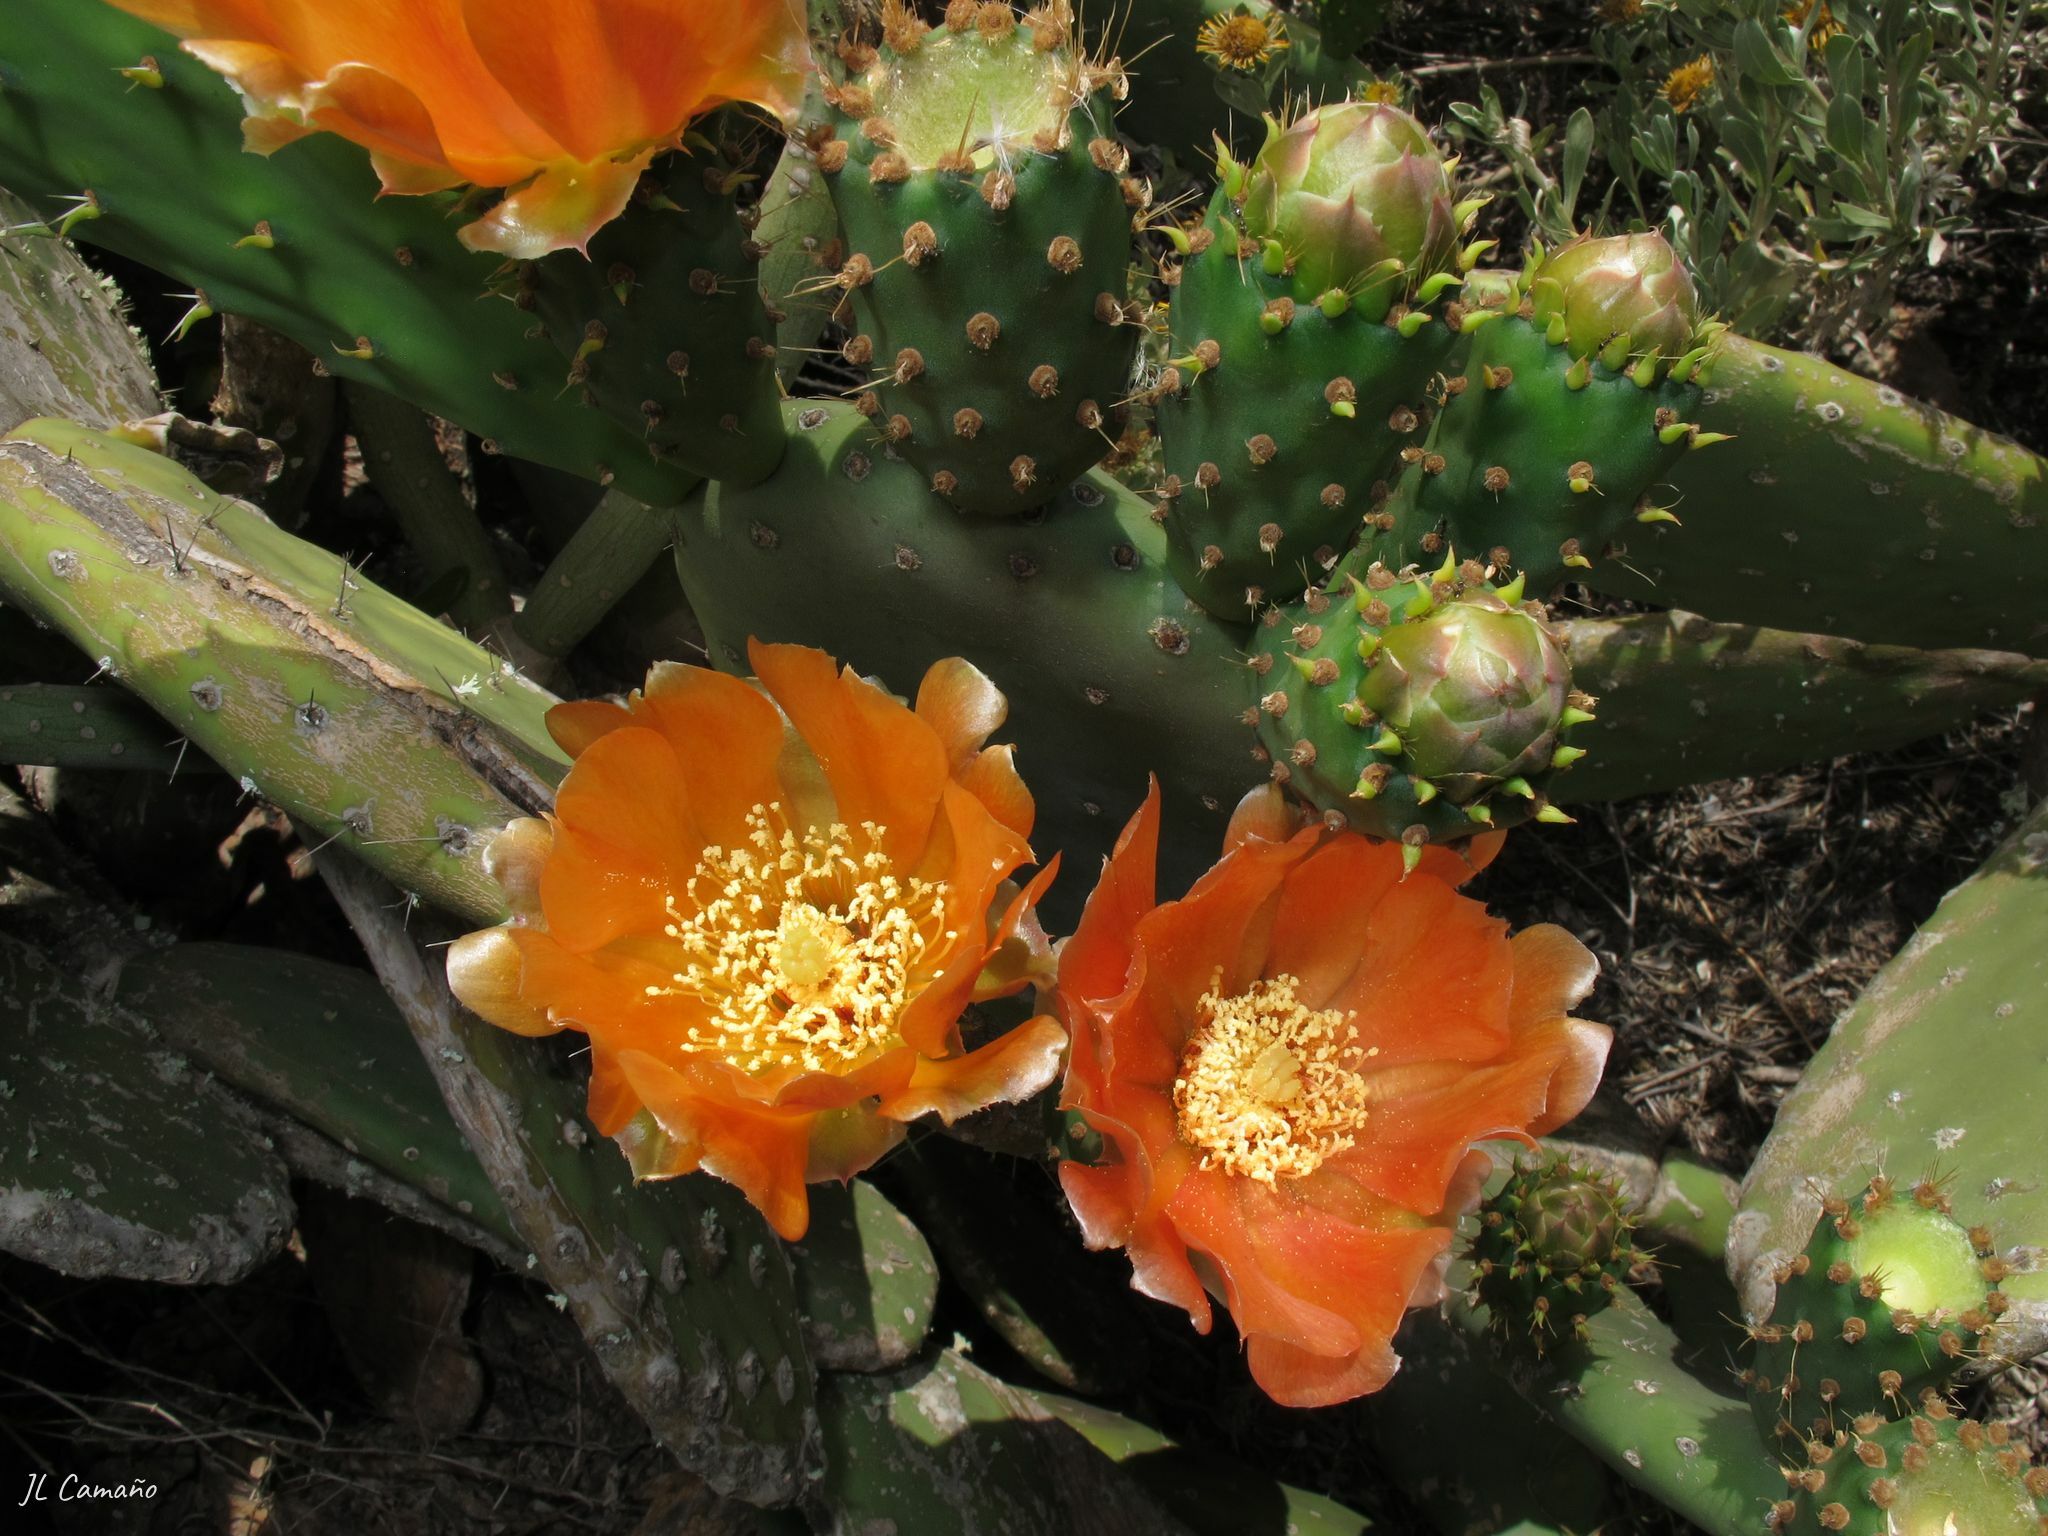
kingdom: Plantae
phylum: Tracheophyta
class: Magnoliopsida
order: Caryophyllales
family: Cactaceae
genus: Opuntia
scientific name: Opuntia ficus-indica
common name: Barbary fig
